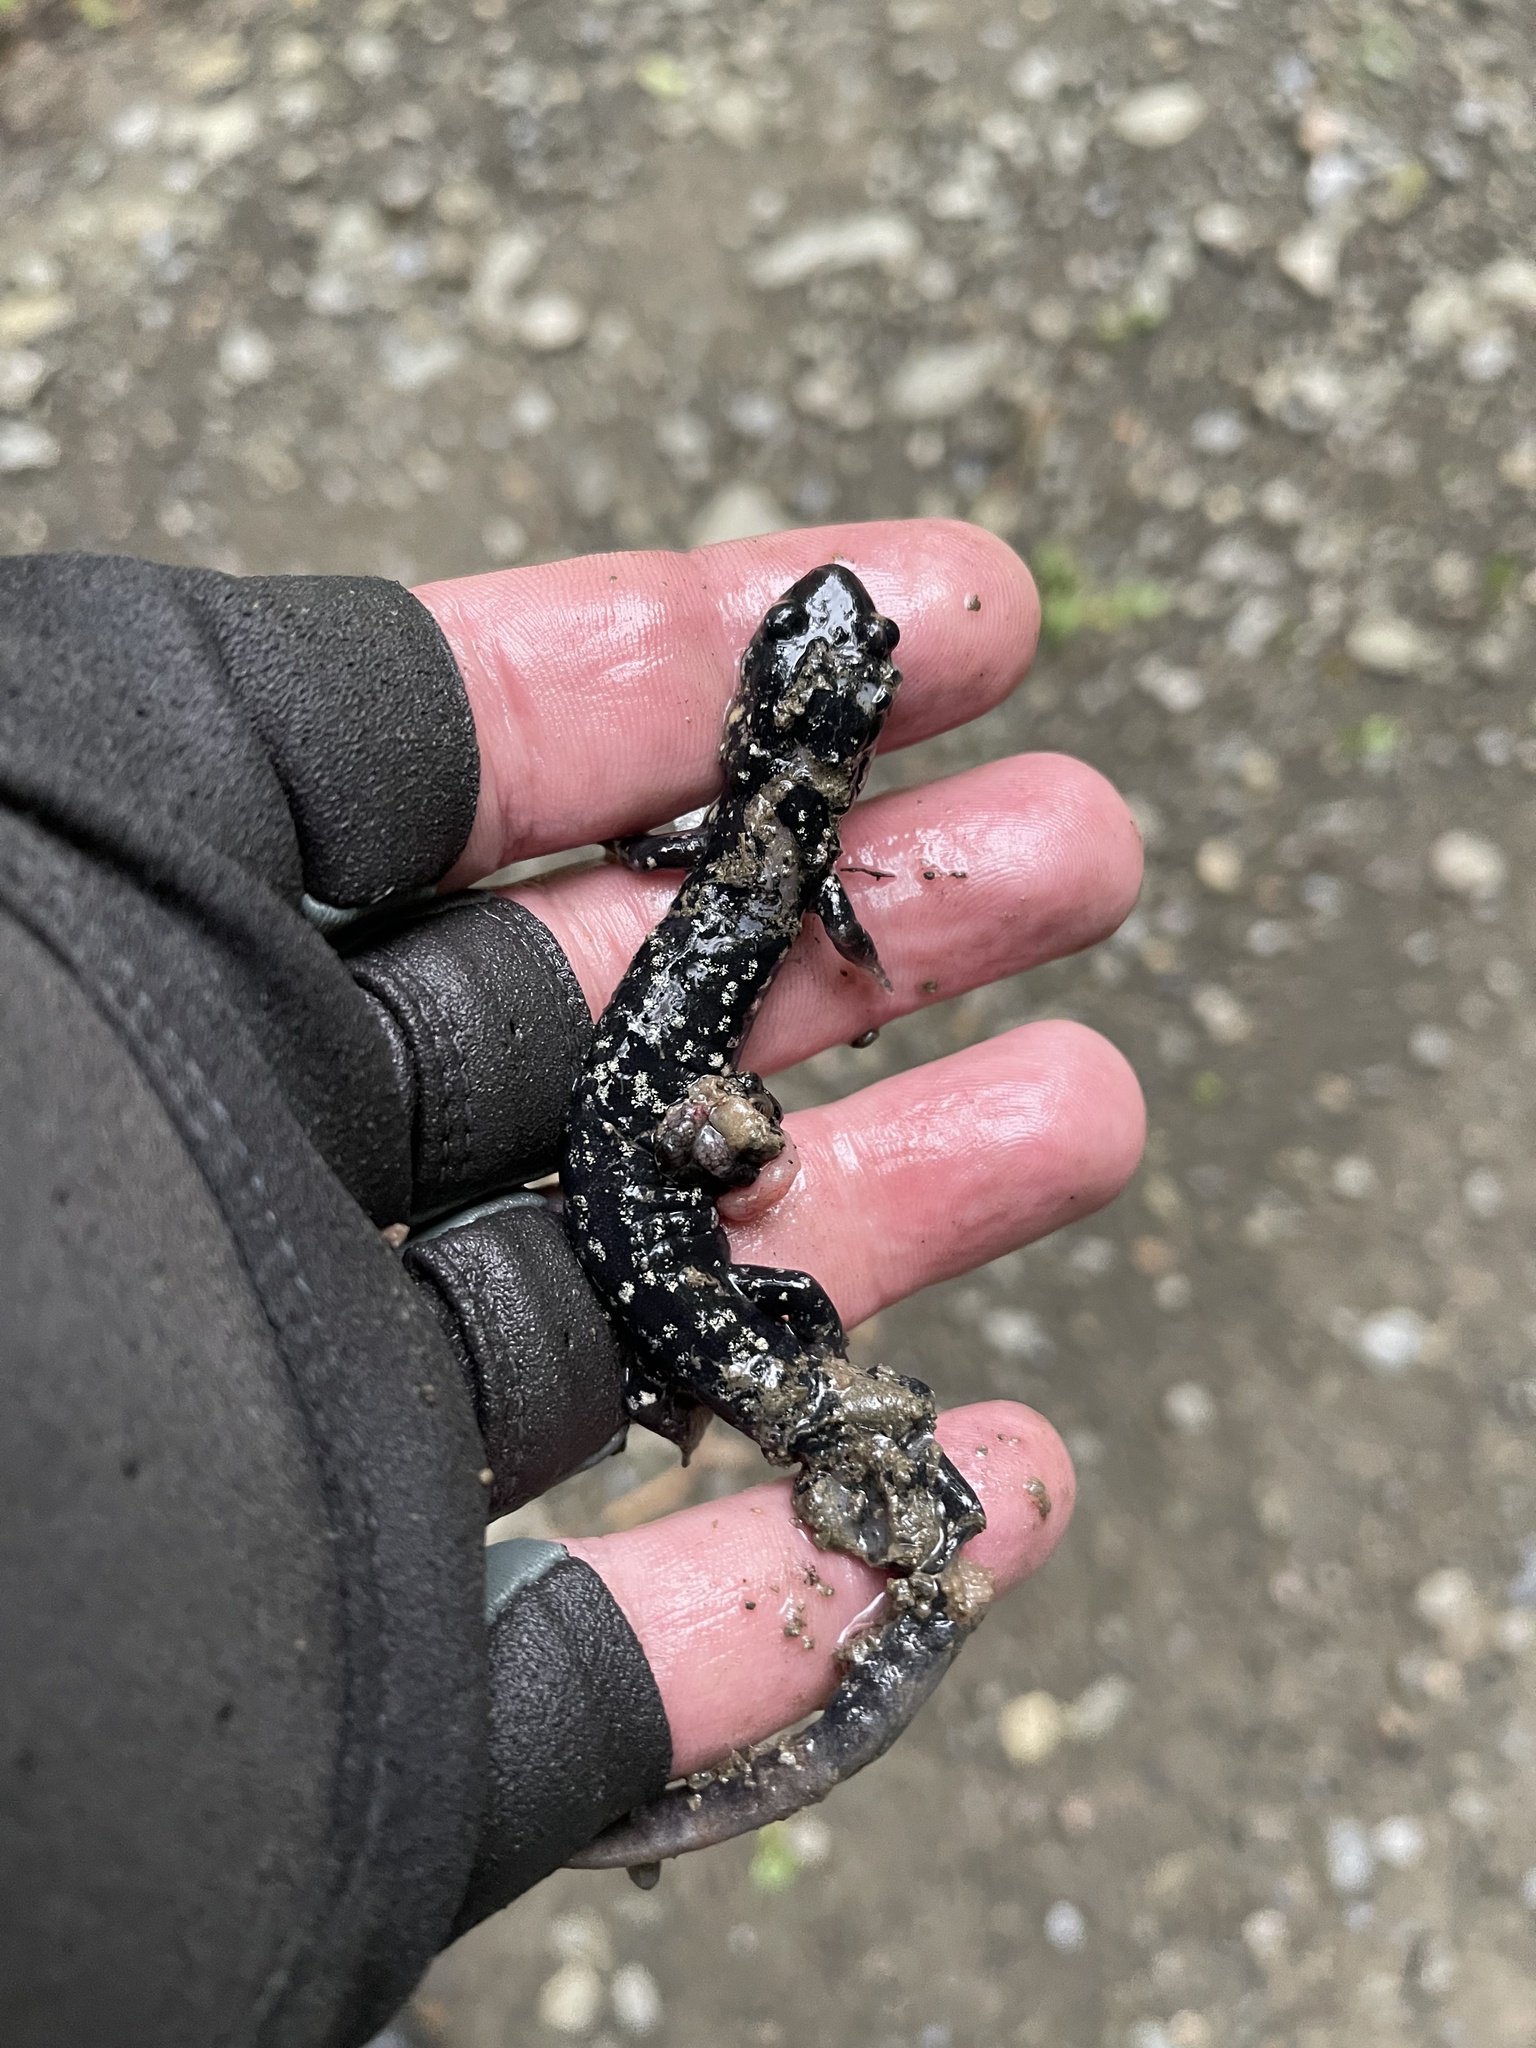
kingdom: Animalia
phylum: Chordata
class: Amphibia
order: Caudata
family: Plethodontidae
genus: Plethodon
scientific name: Plethodon glutinosus
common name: Northern slimy salamander
